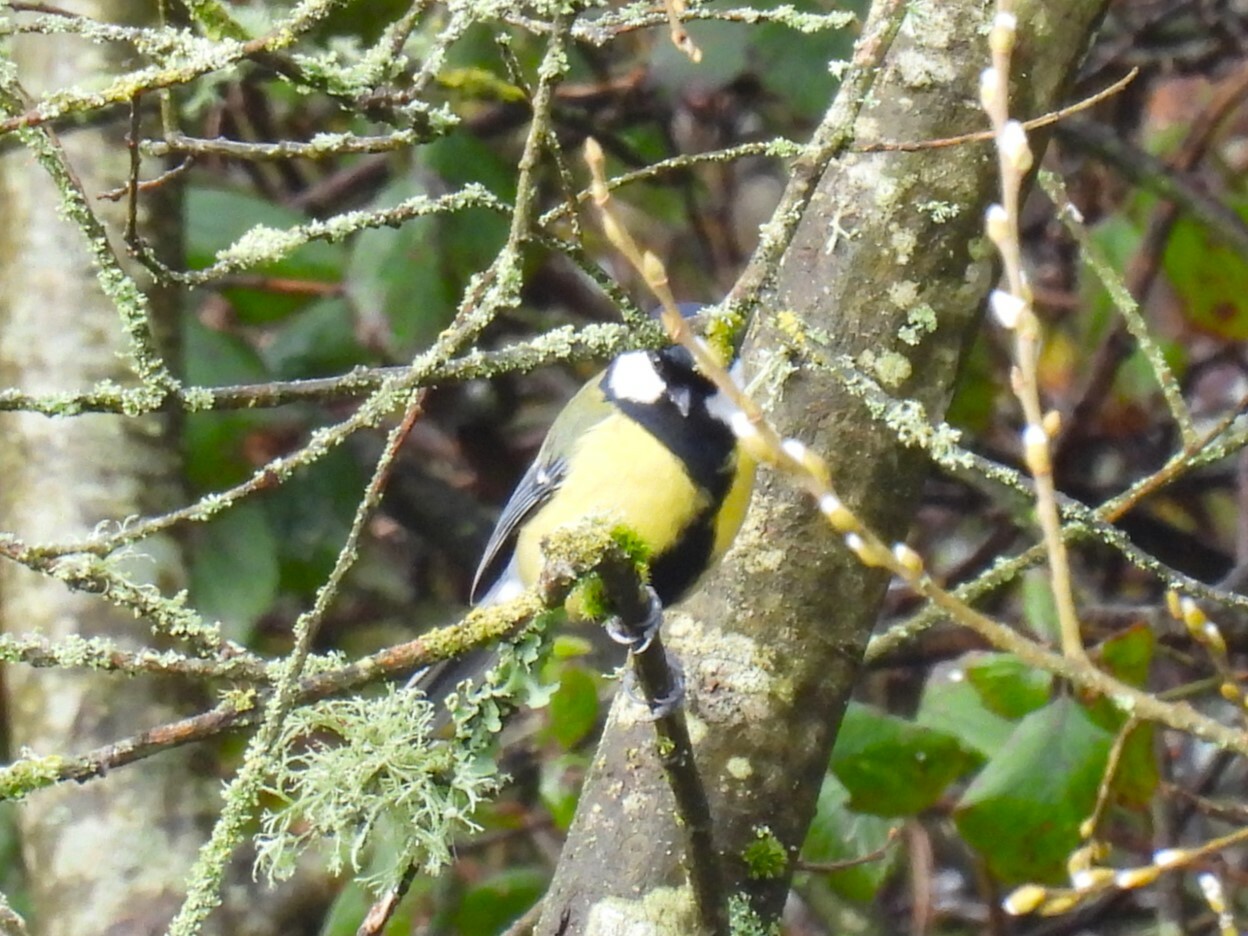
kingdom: Animalia
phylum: Chordata
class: Aves
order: Passeriformes
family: Paridae
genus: Parus
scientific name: Parus major
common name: Great tit
